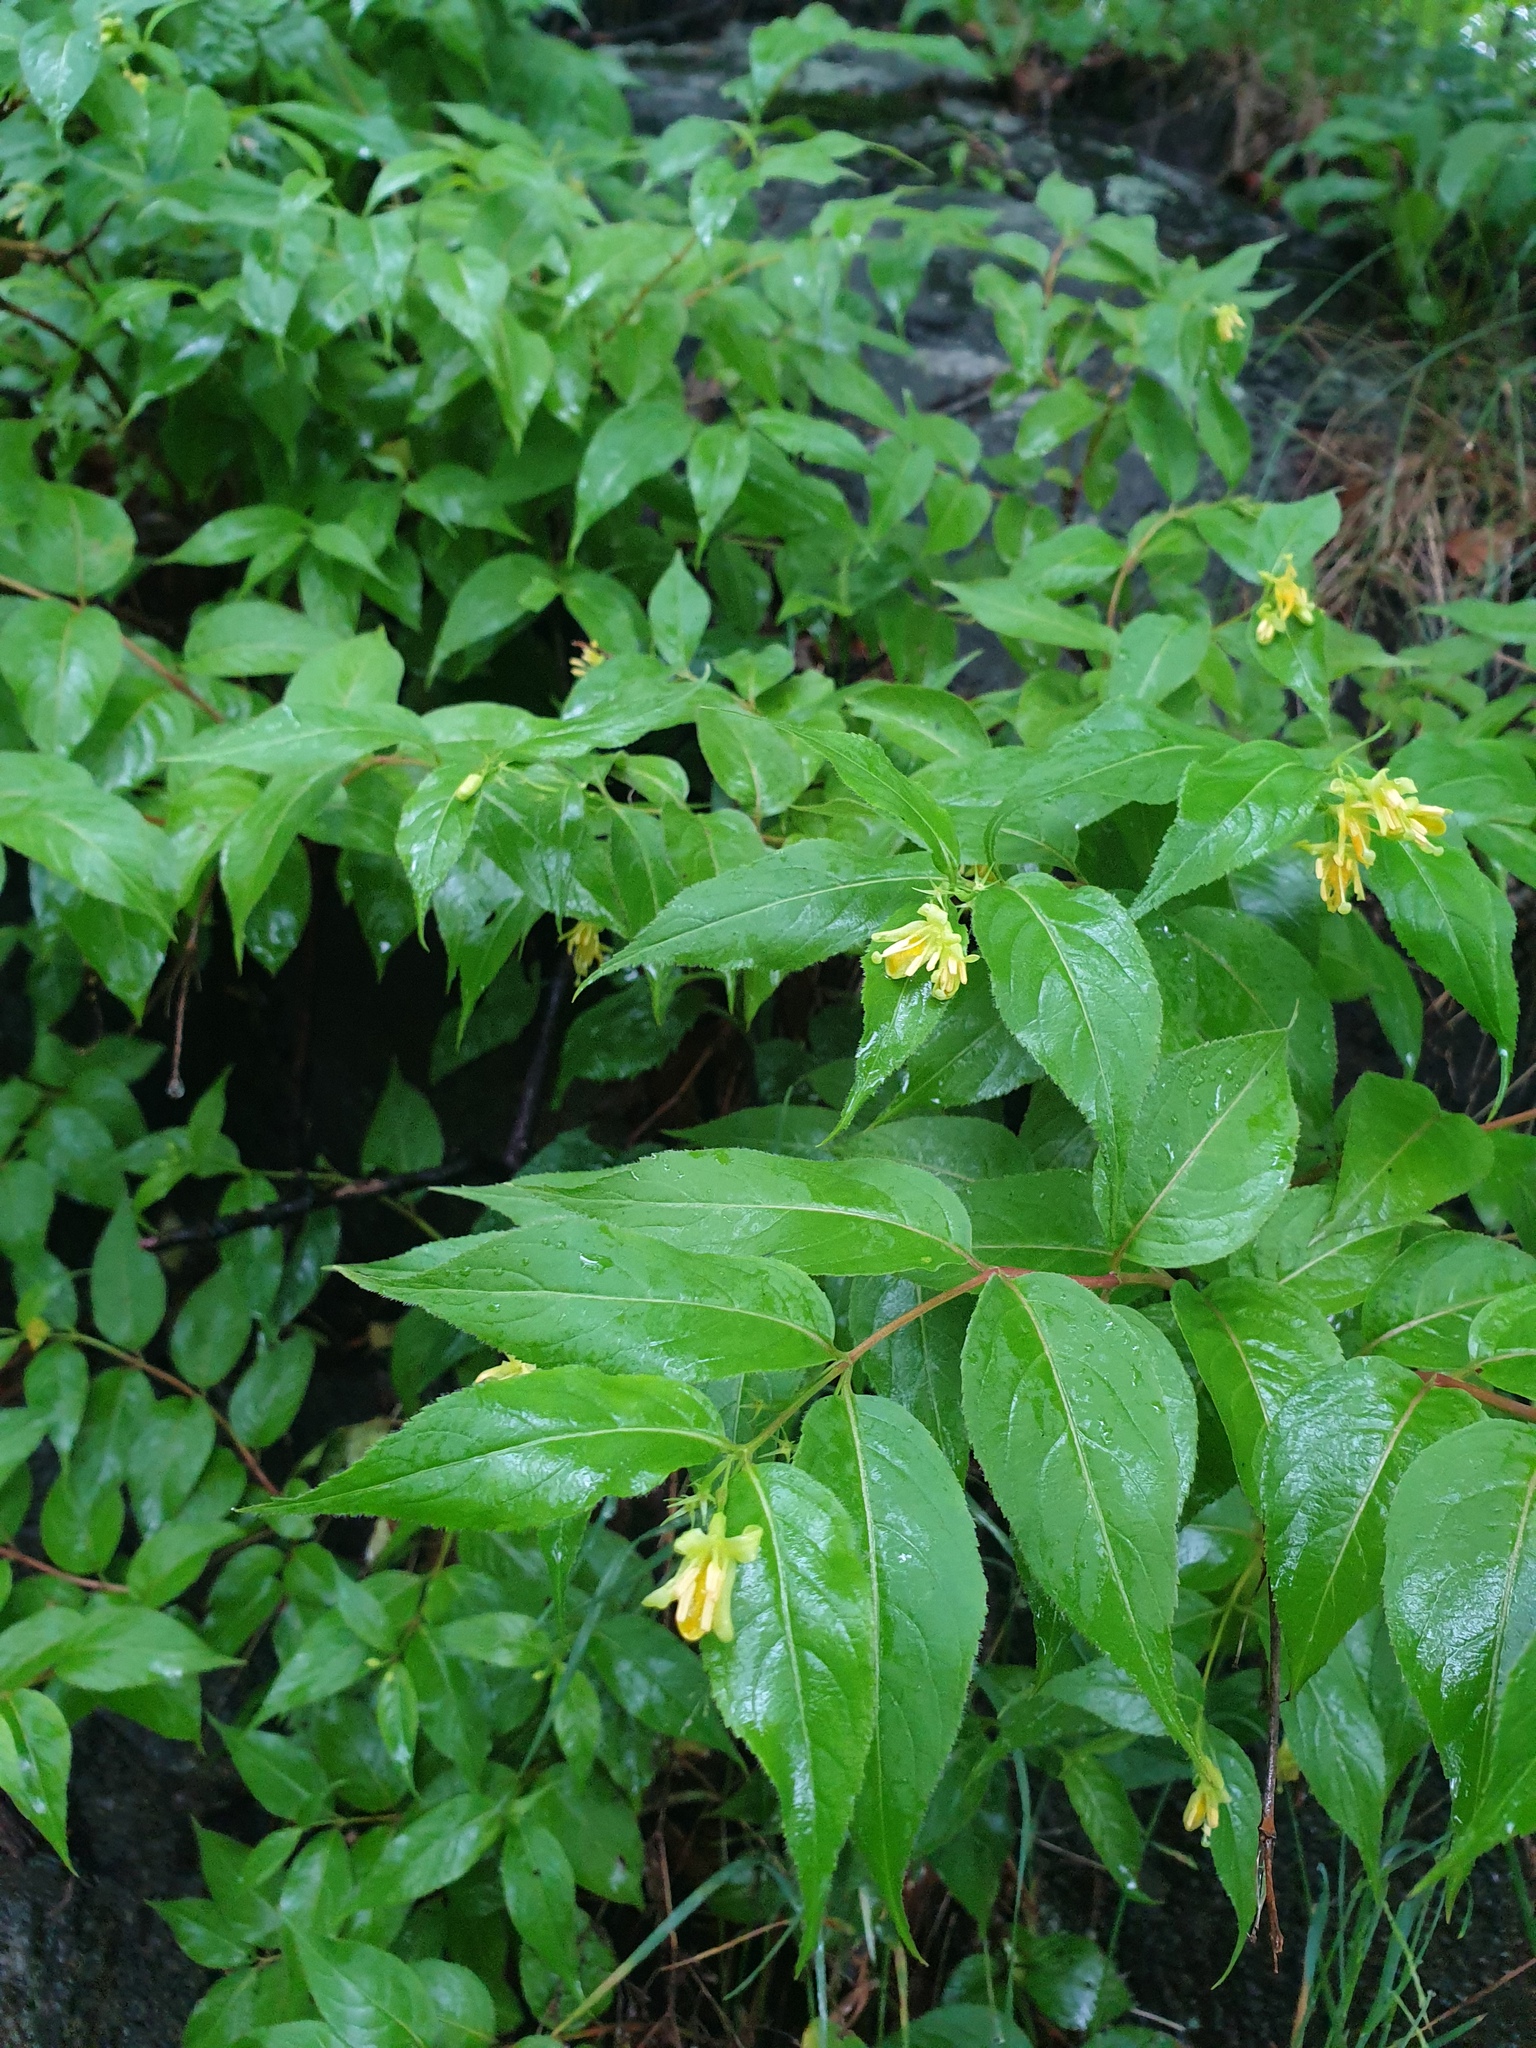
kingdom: Plantae
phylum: Tracheophyta
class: Magnoliopsida
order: Dipsacales
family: Caprifoliaceae
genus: Diervilla
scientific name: Diervilla lonicera
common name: Bush-honeysuckle
